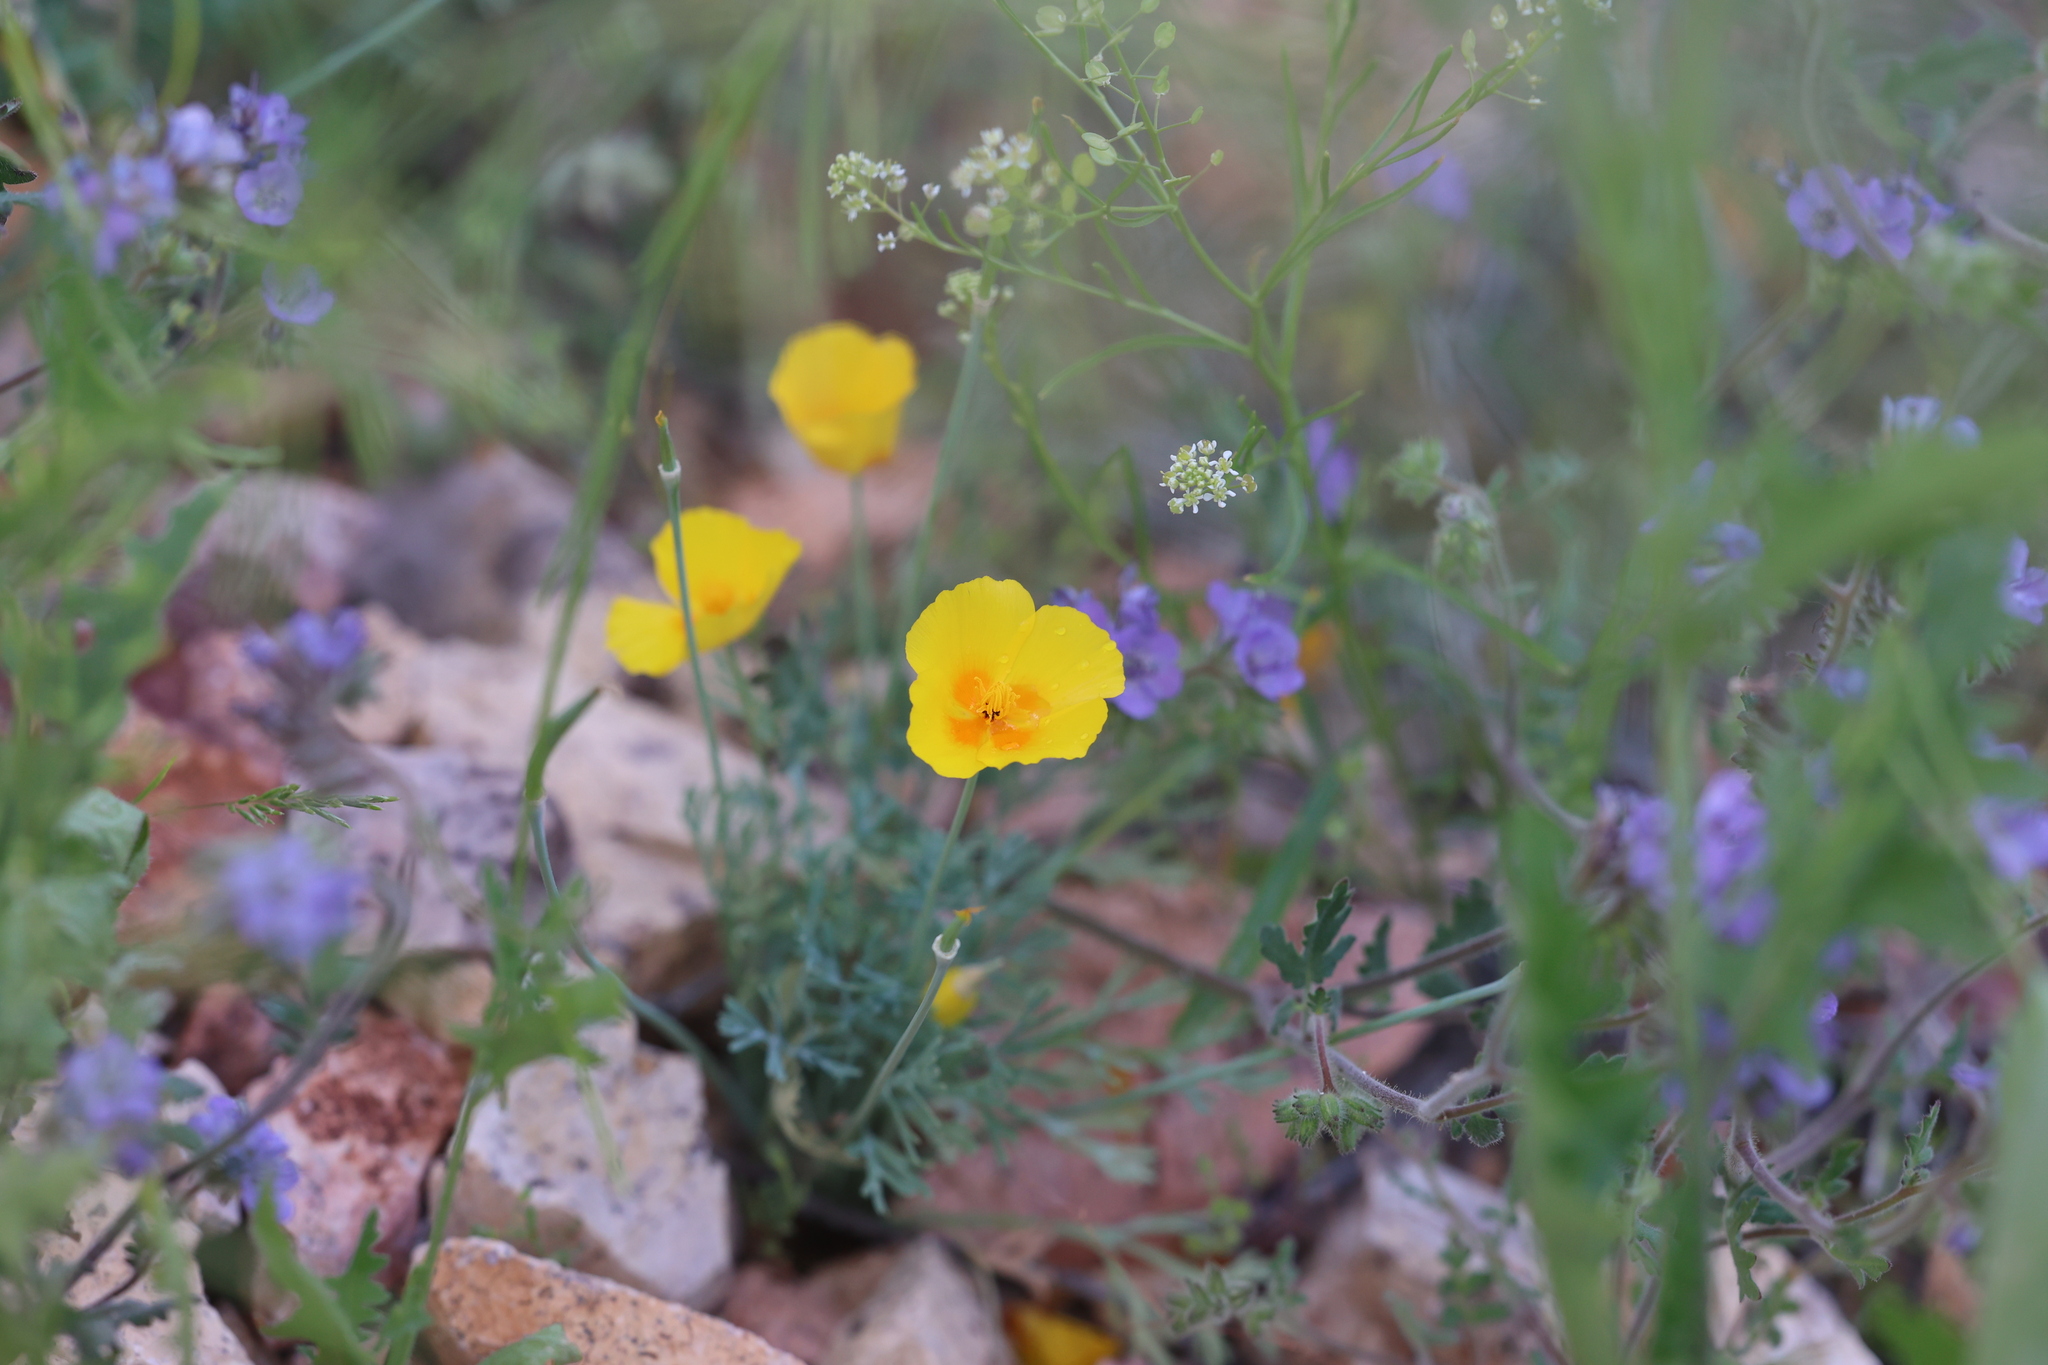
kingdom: Plantae
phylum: Tracheophyta
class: Magnoliopsida
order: Ranunculales
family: Papaveraceae
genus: Eschscholzia
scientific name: Eschscholzia californica
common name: California poppy
